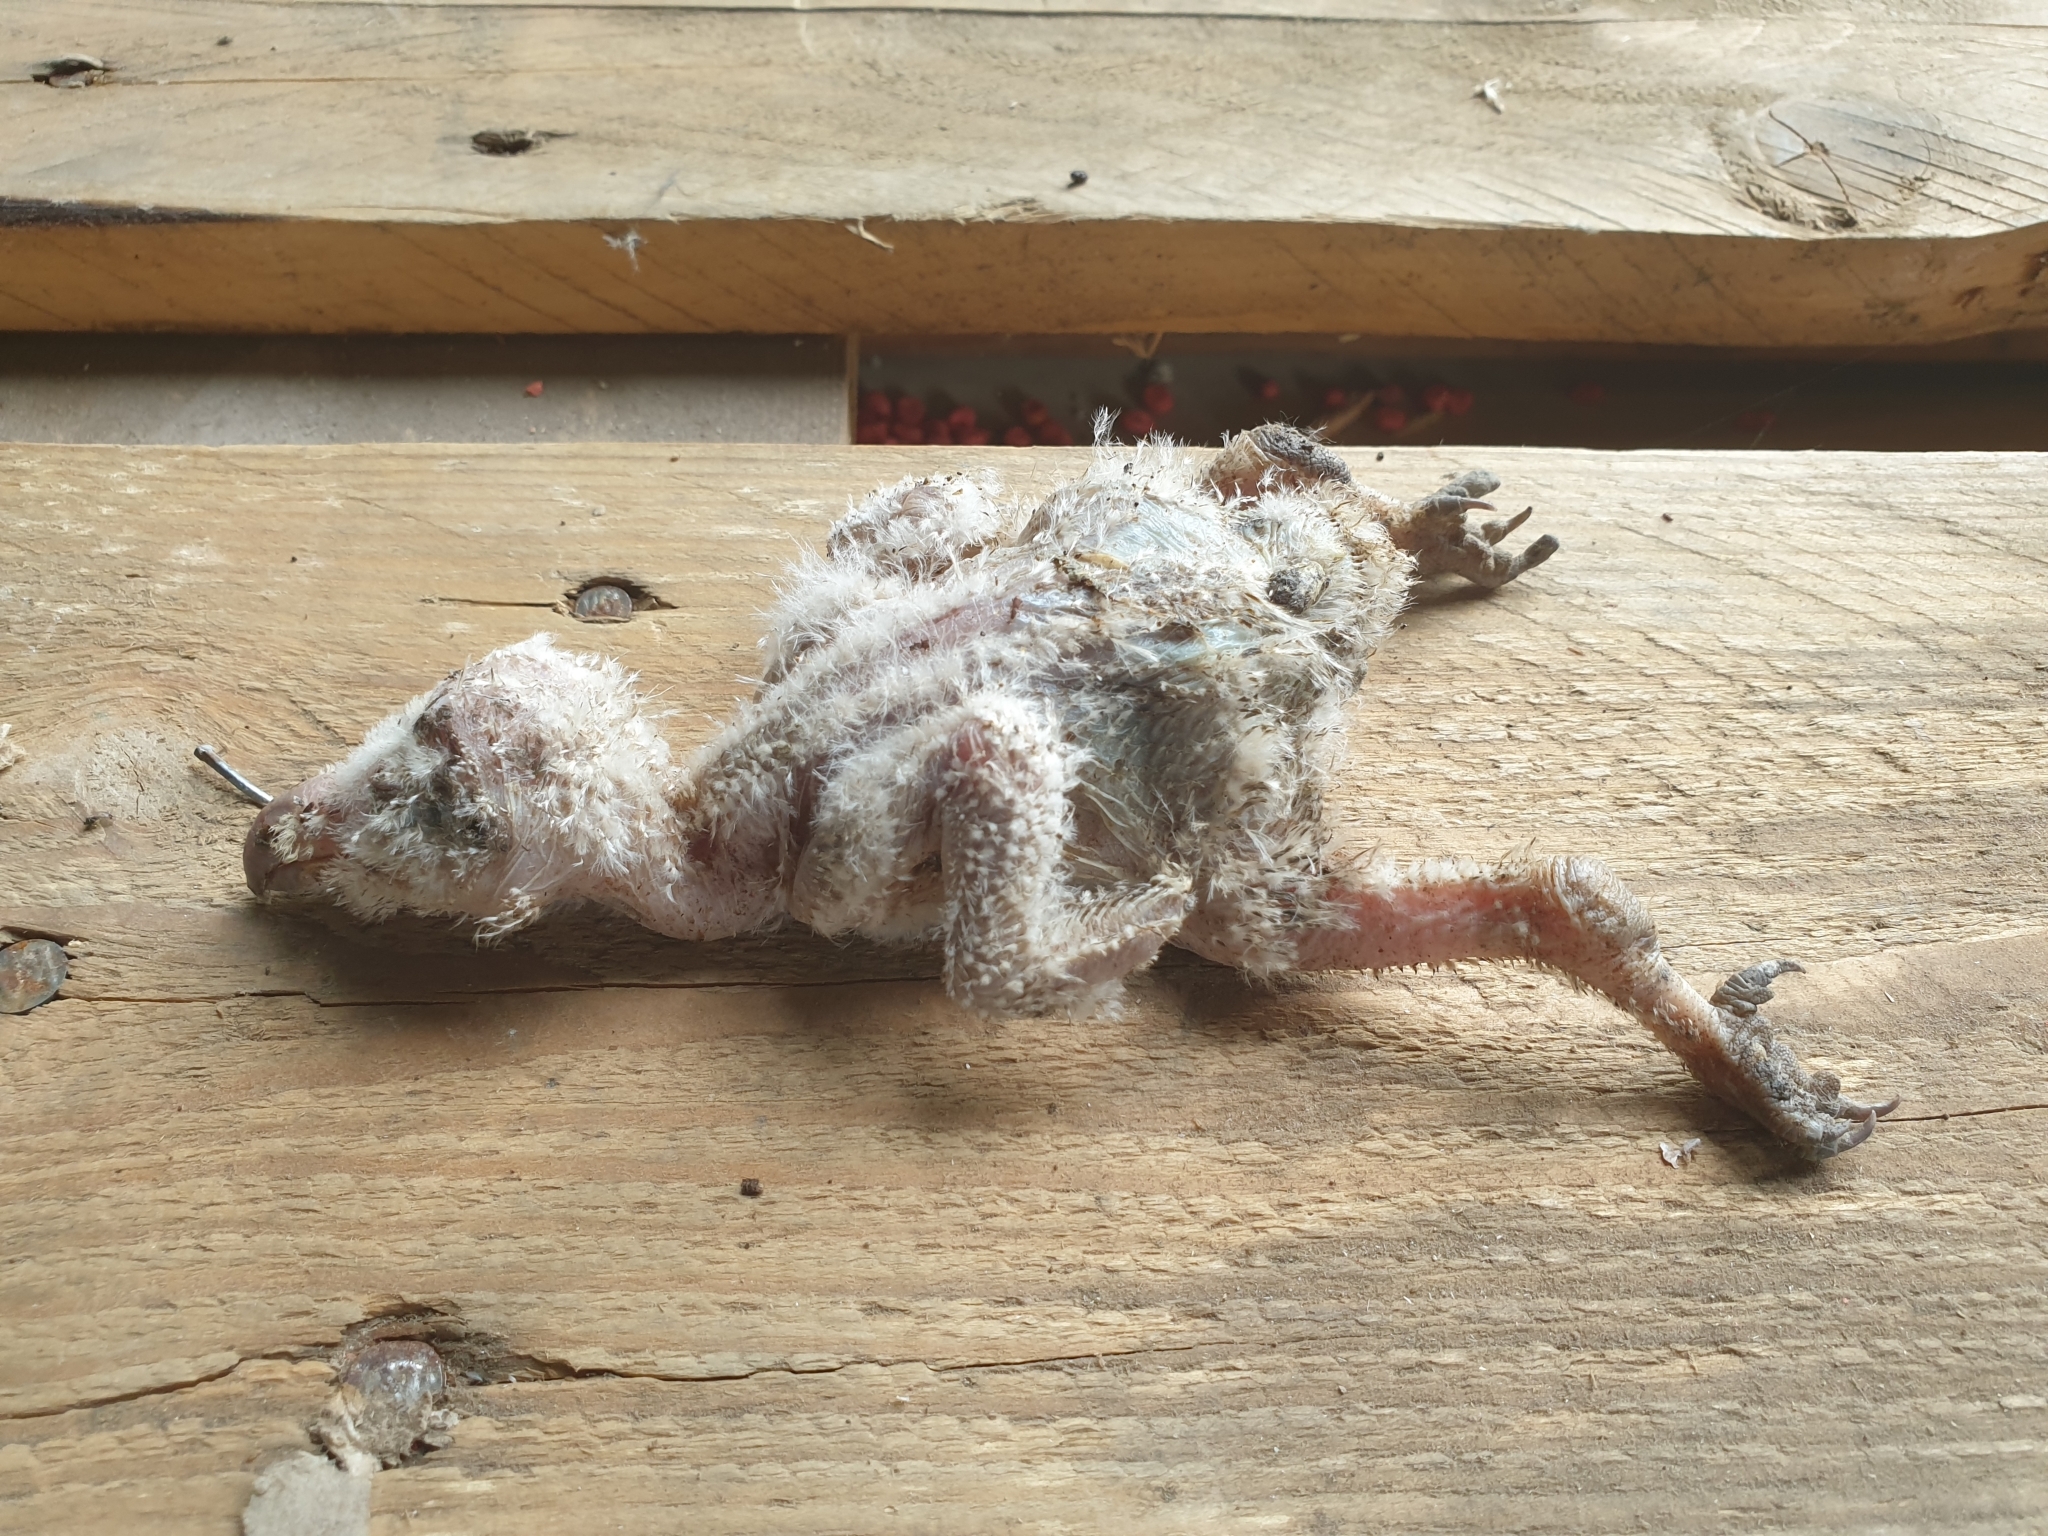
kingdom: Animalia
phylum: Chordata
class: Aves
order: Strigiformes
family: Tytonidae
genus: Tyto
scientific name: Tyto alba
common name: Barn owl
